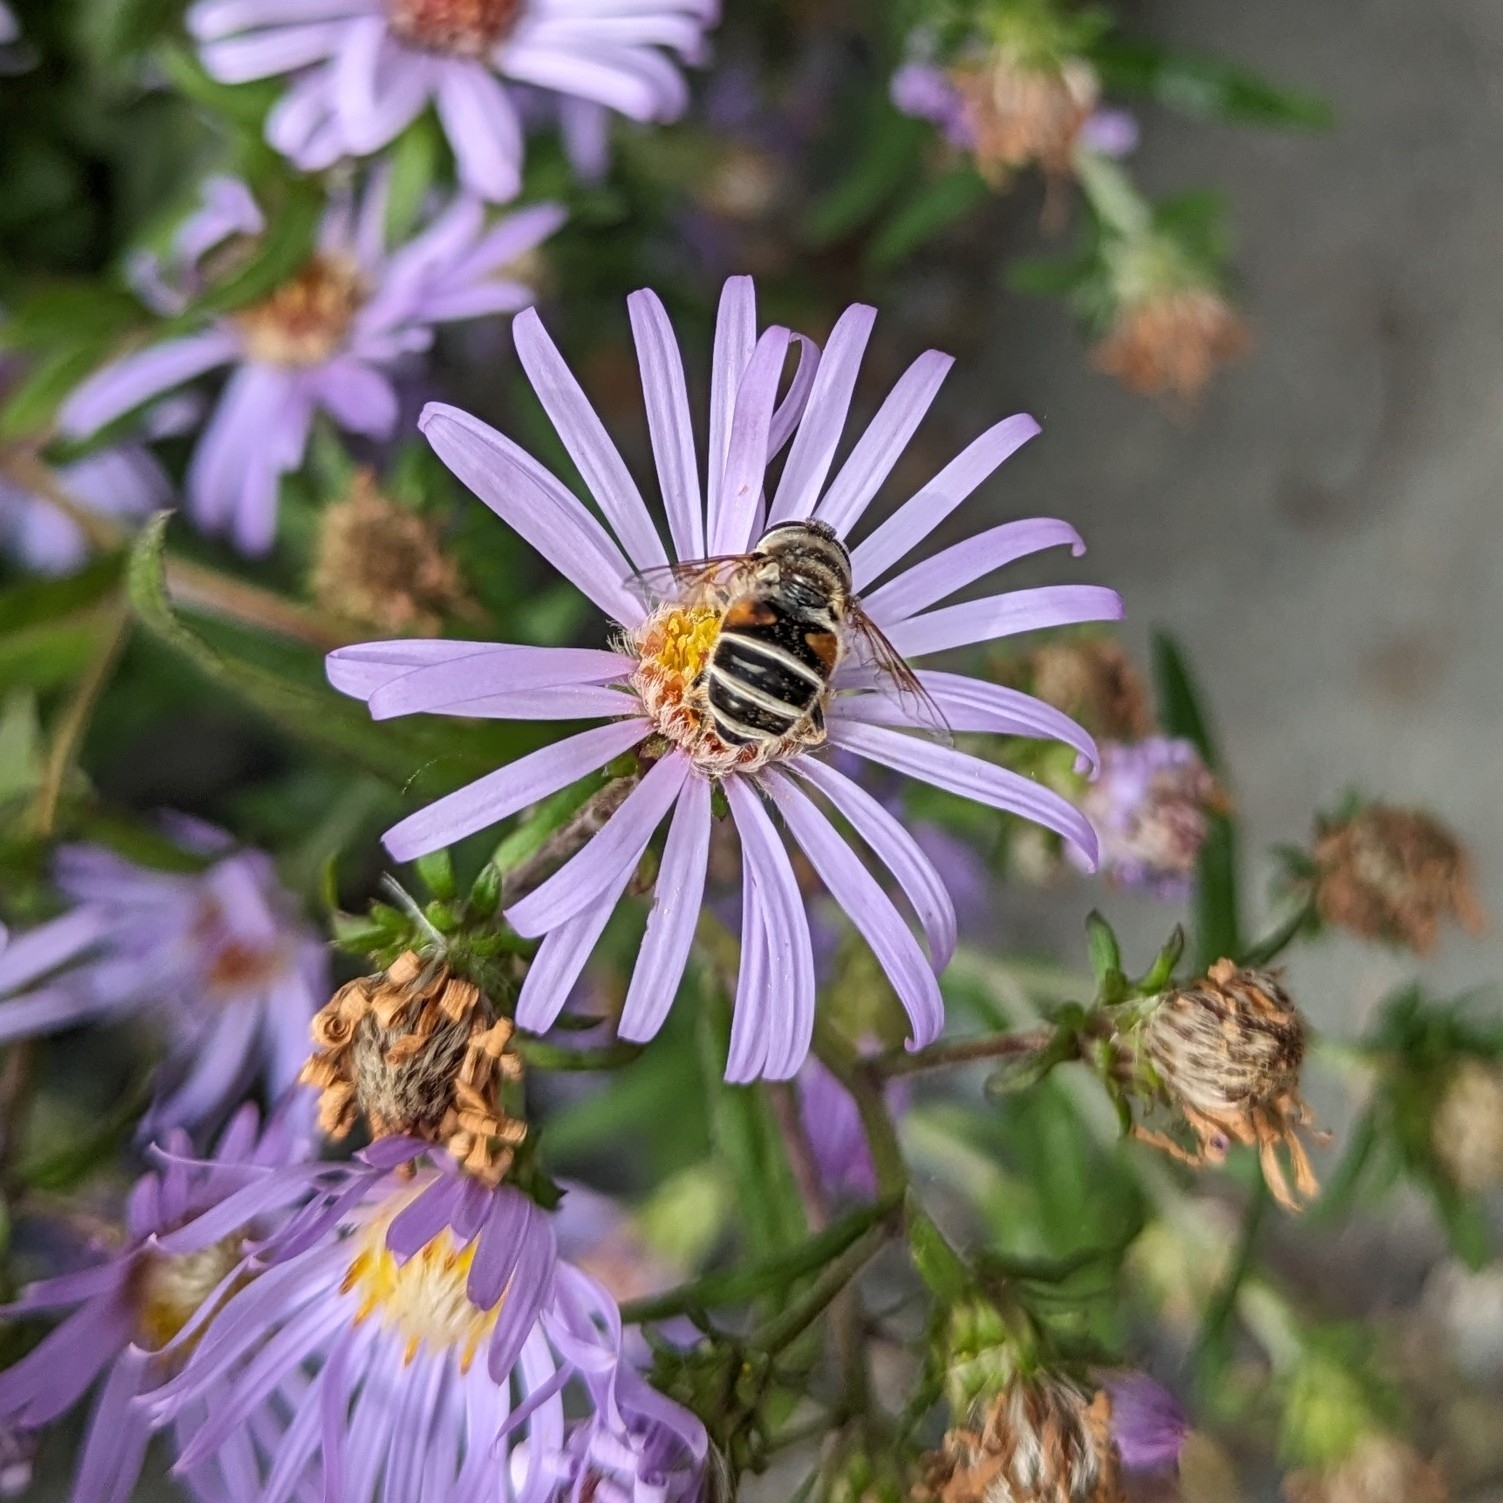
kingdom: Animalia
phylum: Arthropoda
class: Insecta
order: Diptera
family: Syrphidae
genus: Eristalis
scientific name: Eristalis arbustorum
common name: Hover fly
